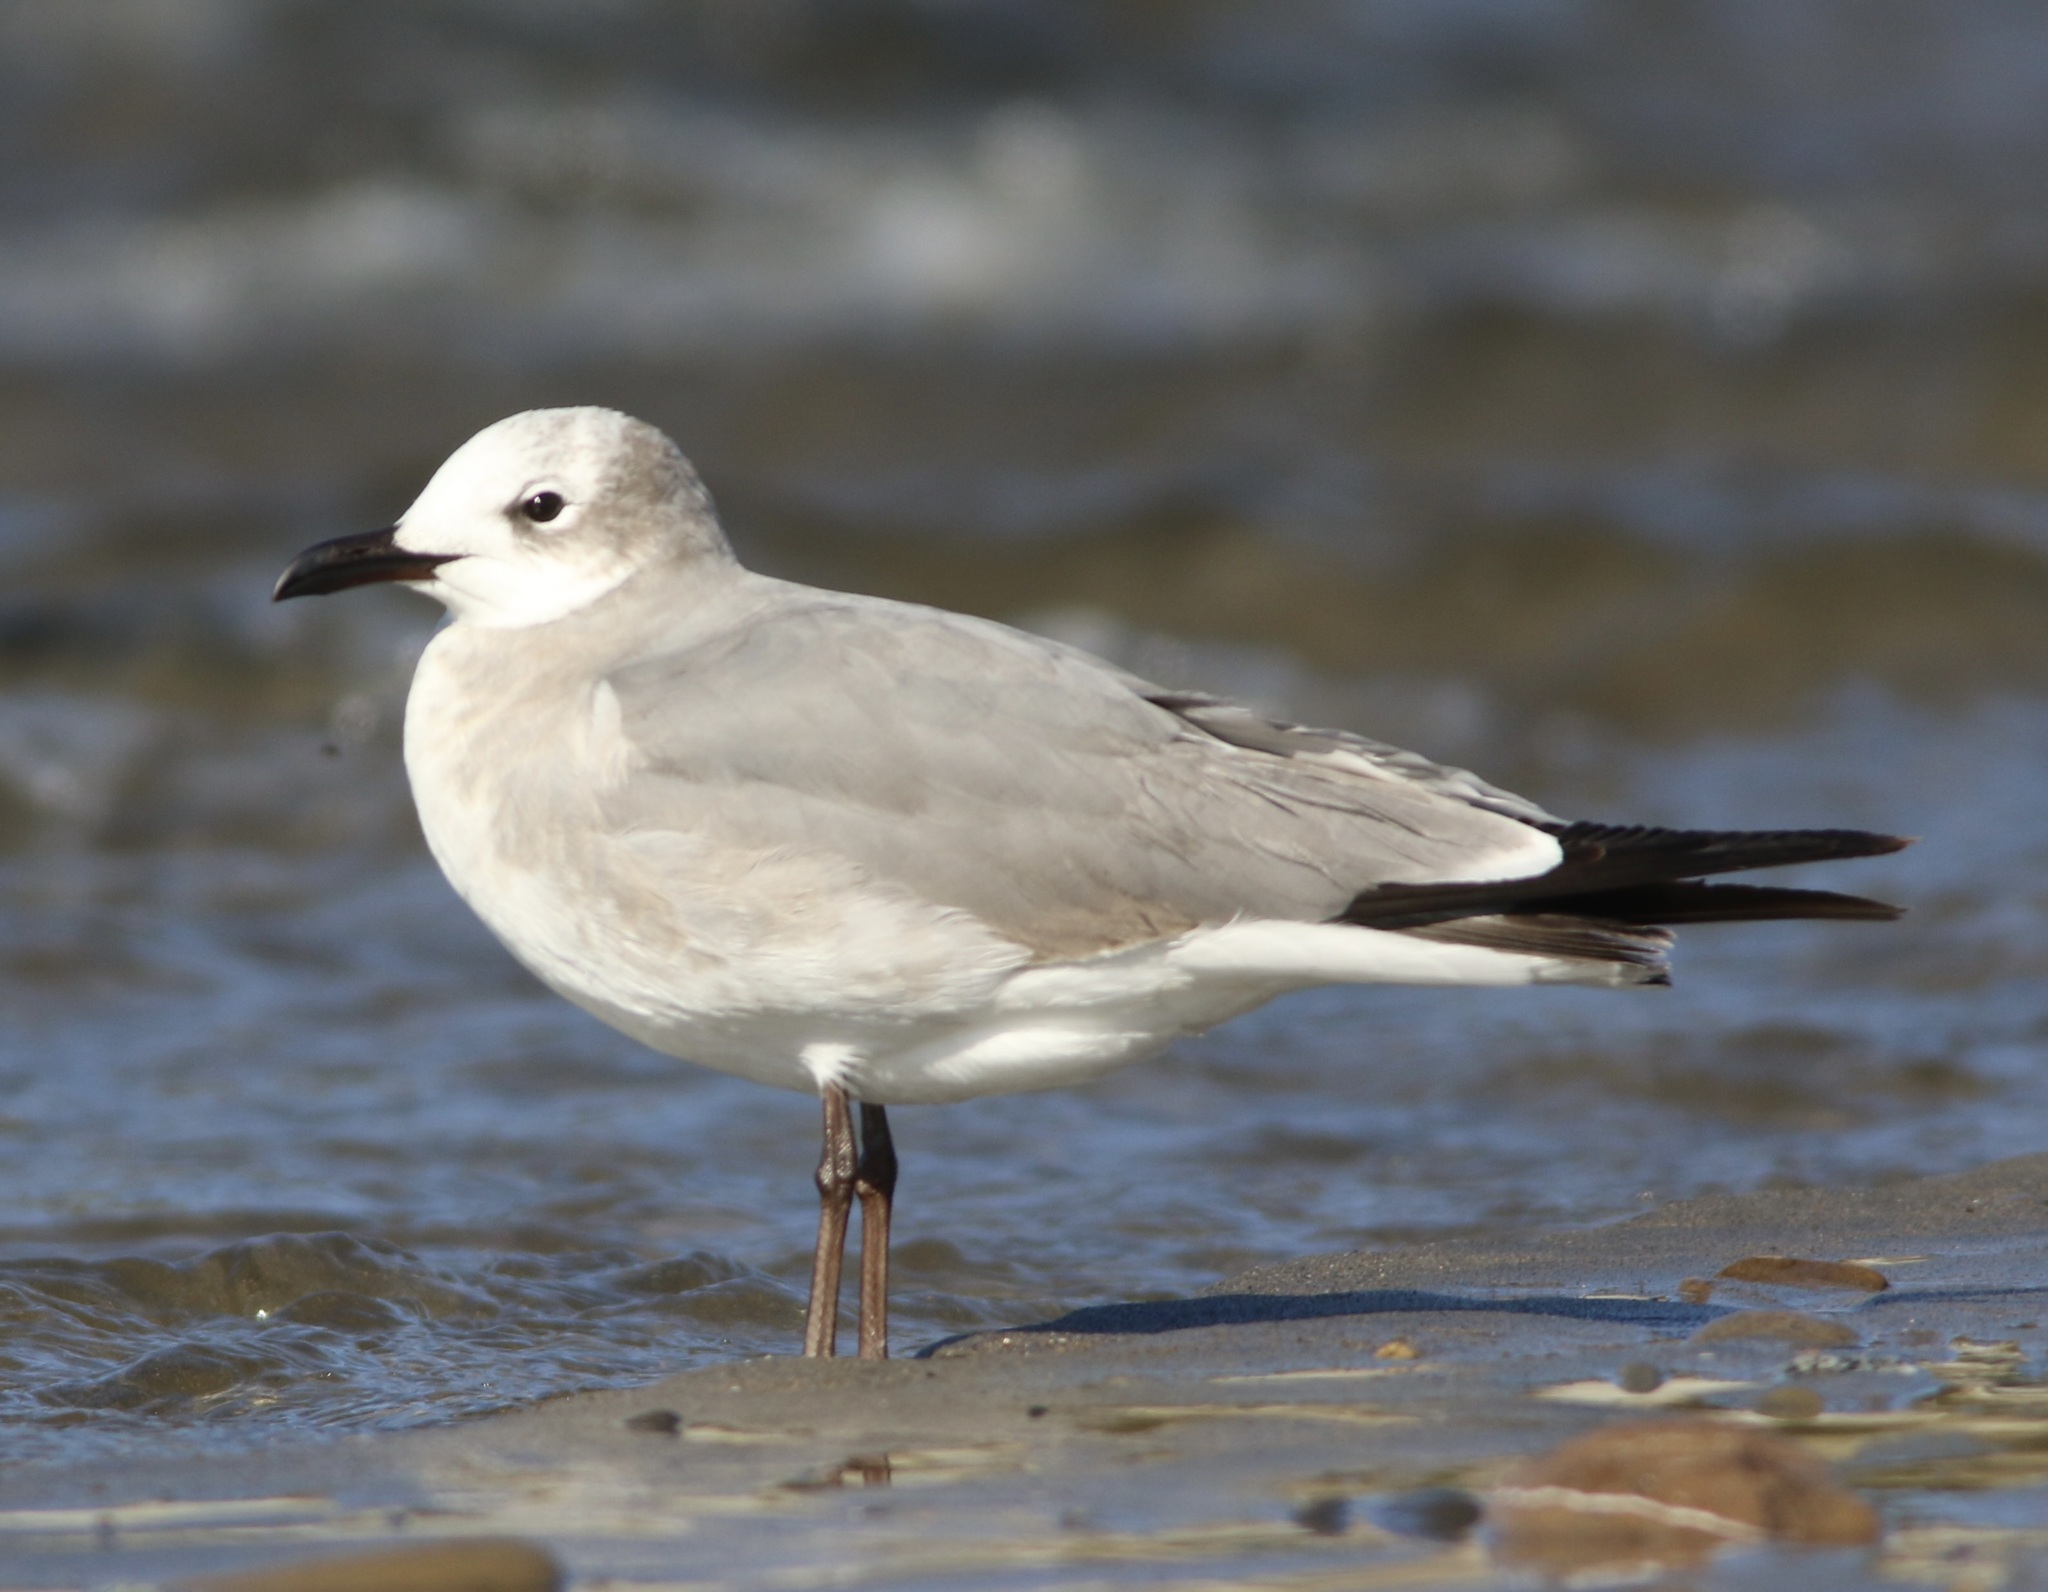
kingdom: Animalia
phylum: Chordata
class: Aves
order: Charadriiformes
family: Laridae
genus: Leucophaeus
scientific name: Leucophaeus atricilla
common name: Laughing gull
